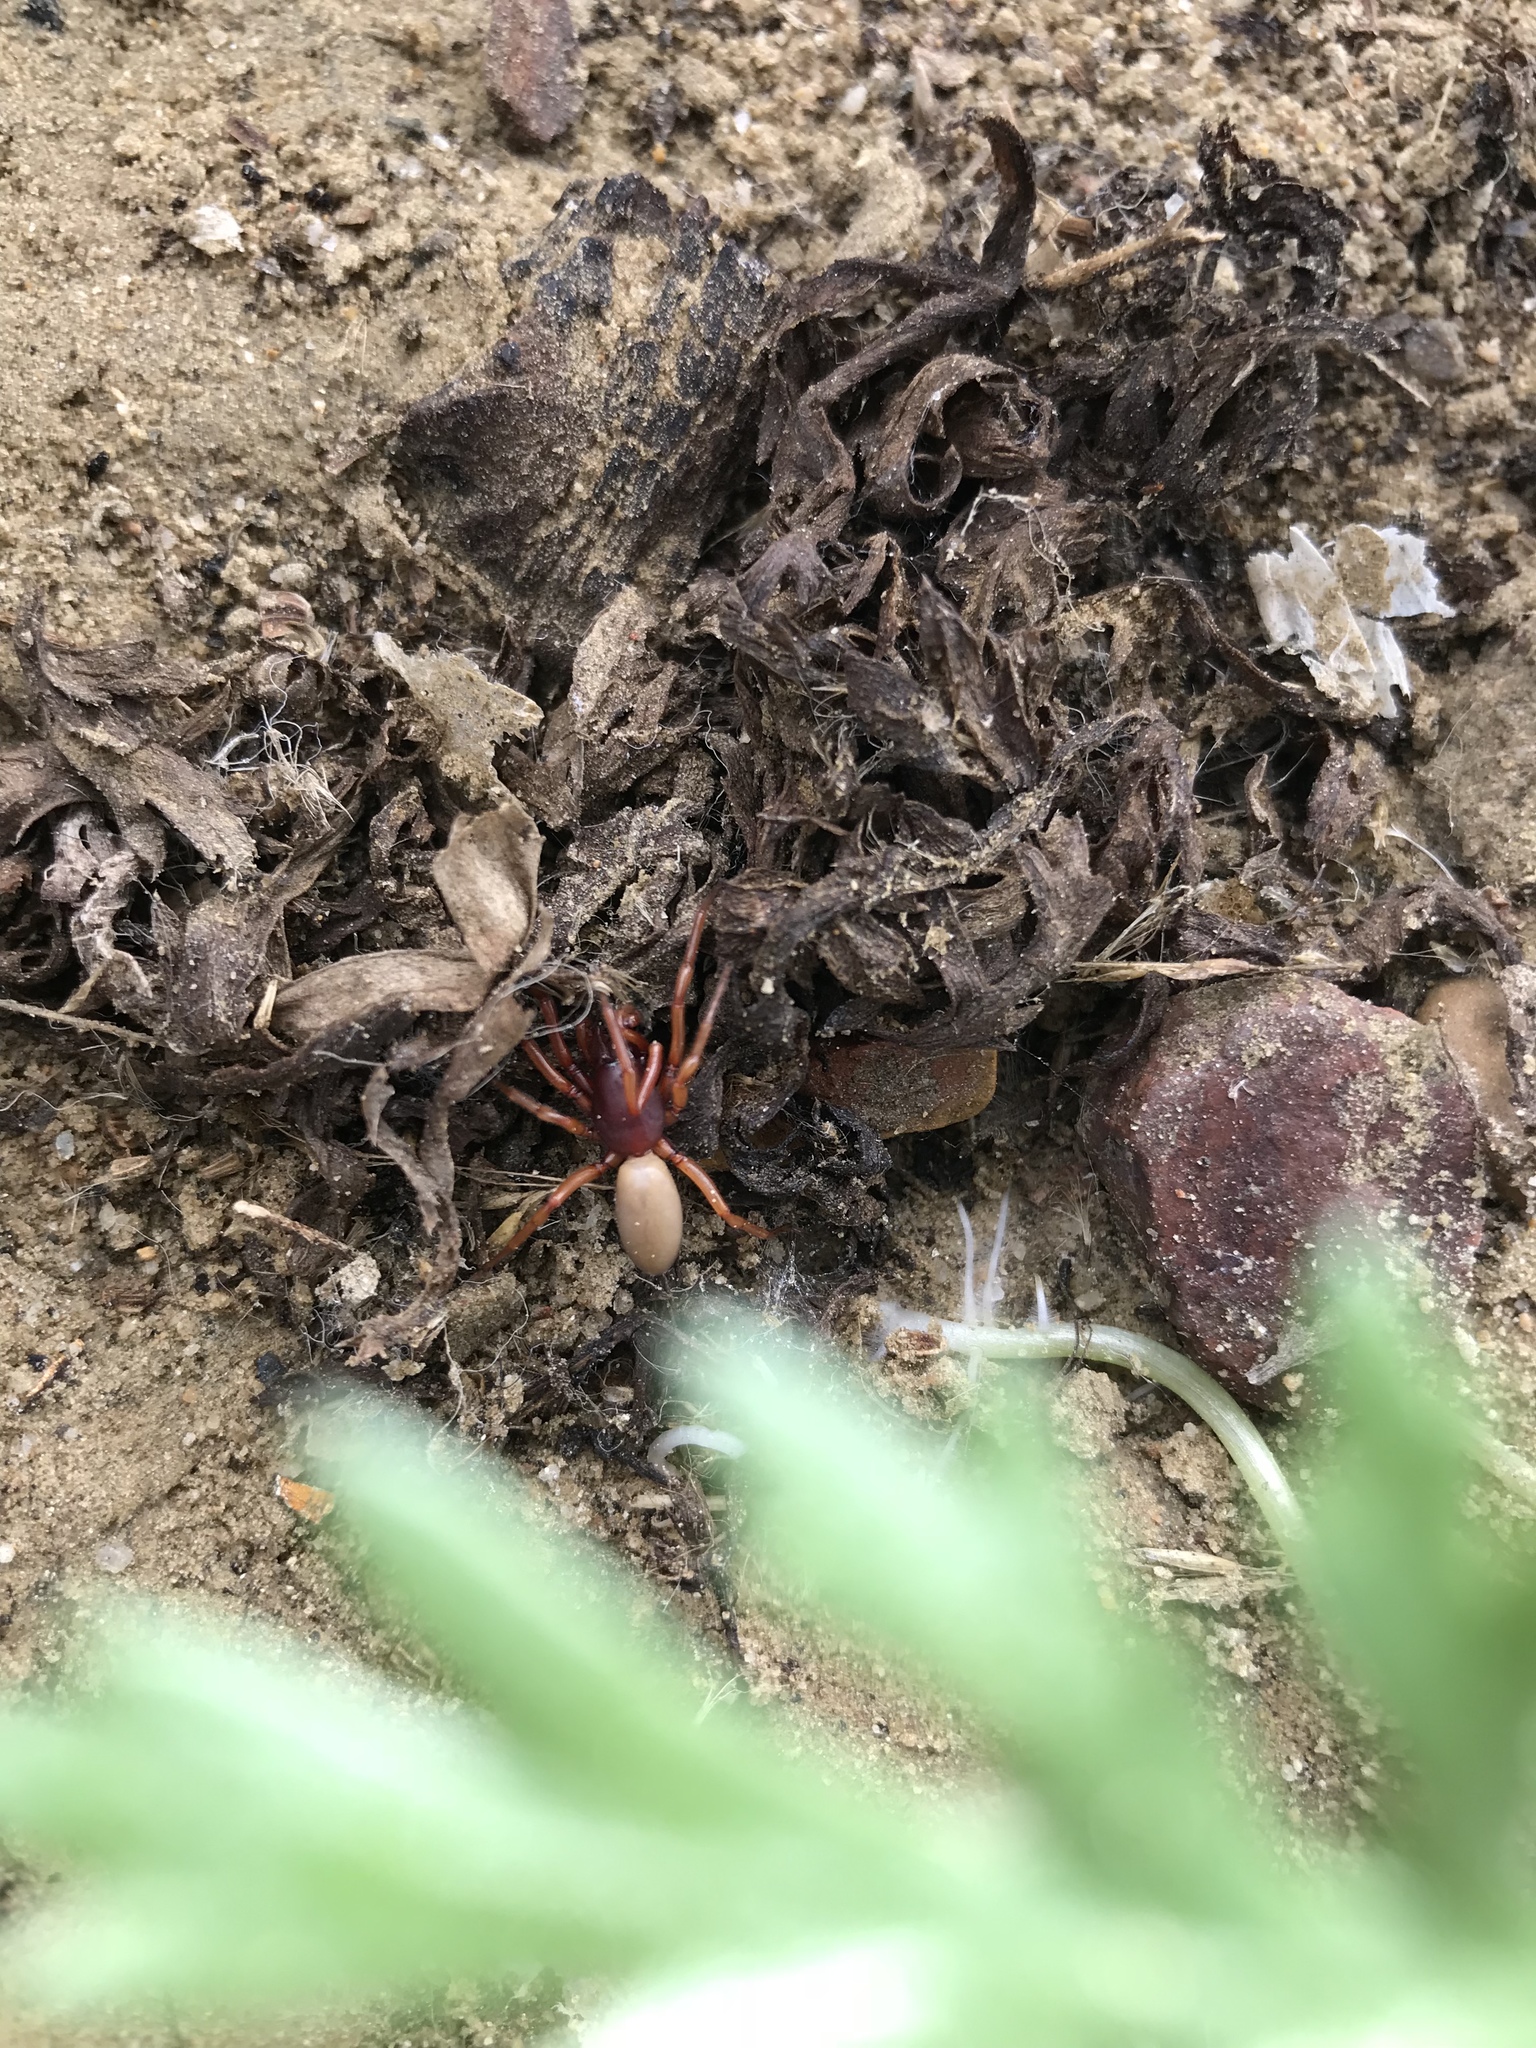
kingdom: Animalia
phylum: Arthropoda
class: Arachnida
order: Araneae
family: Dysderidae
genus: Dysdera
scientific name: Dysdera crocata
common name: Woodlouse spider
